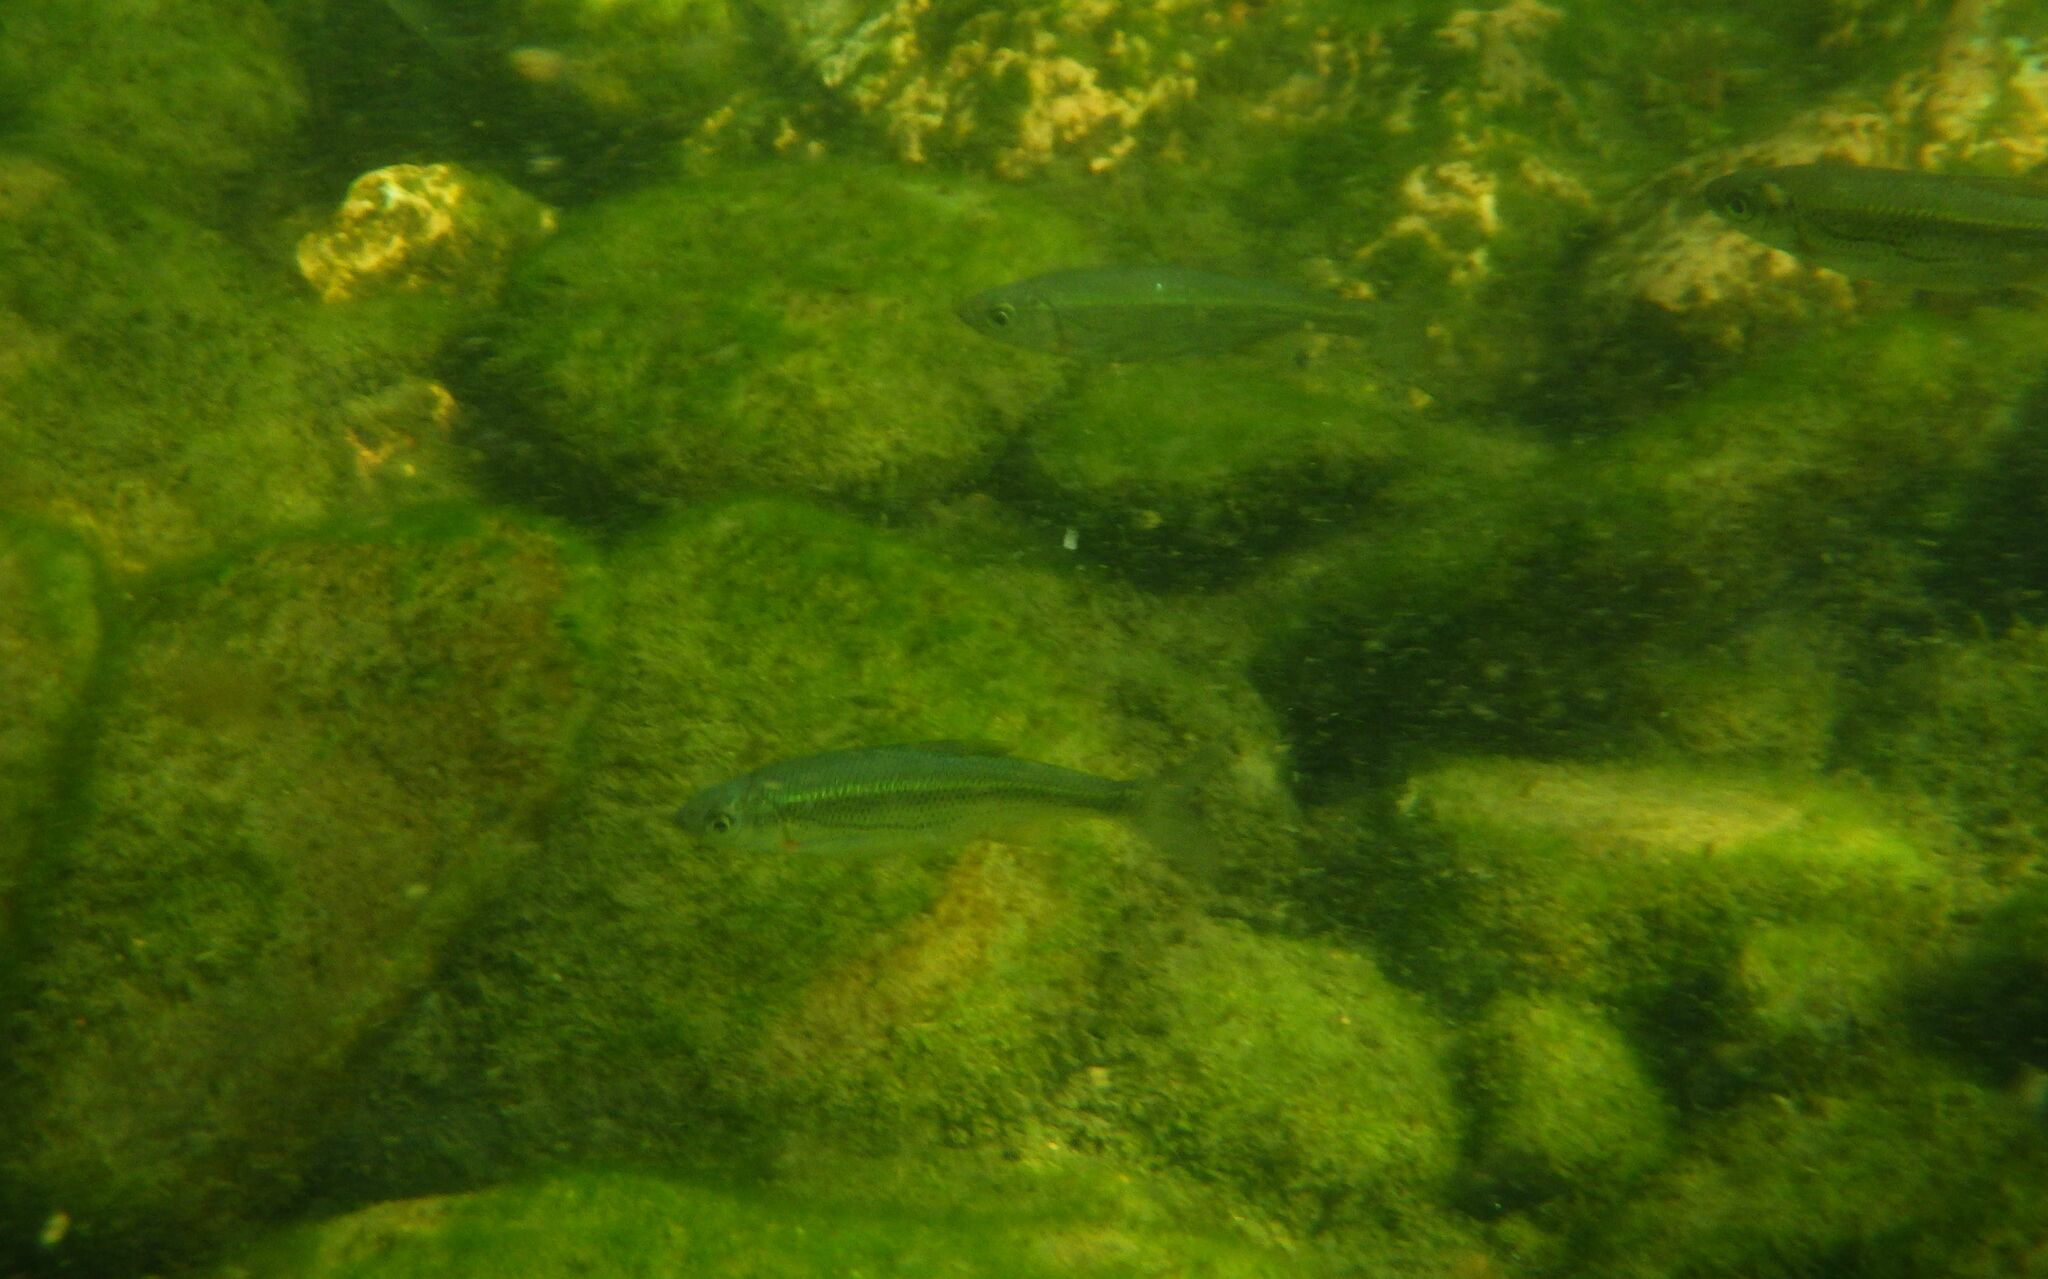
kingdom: Animalia
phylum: Chordata
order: Cypriniformes
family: Cyprinidae
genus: Alburnoides
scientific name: Alburnoides bipunctatus
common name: Spirlin
